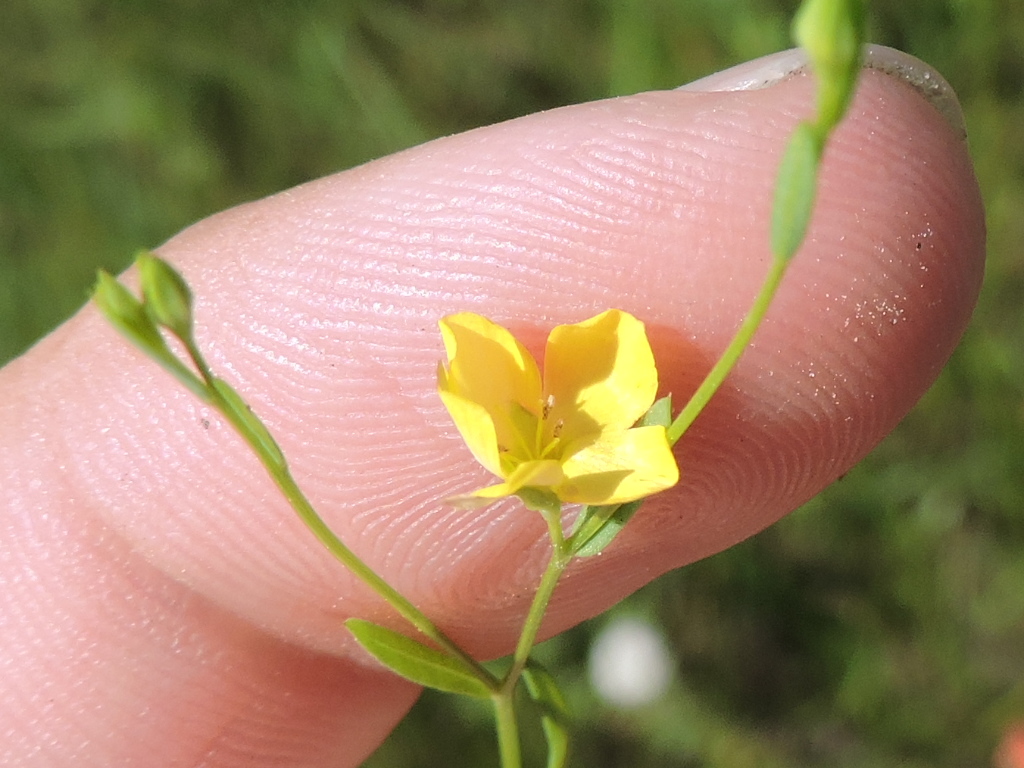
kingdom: Plantae
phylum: Tracheophyta
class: Magnoliopsida
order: Myrtales
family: Onagraceae
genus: Oenothera
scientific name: Oenothera spachiana
